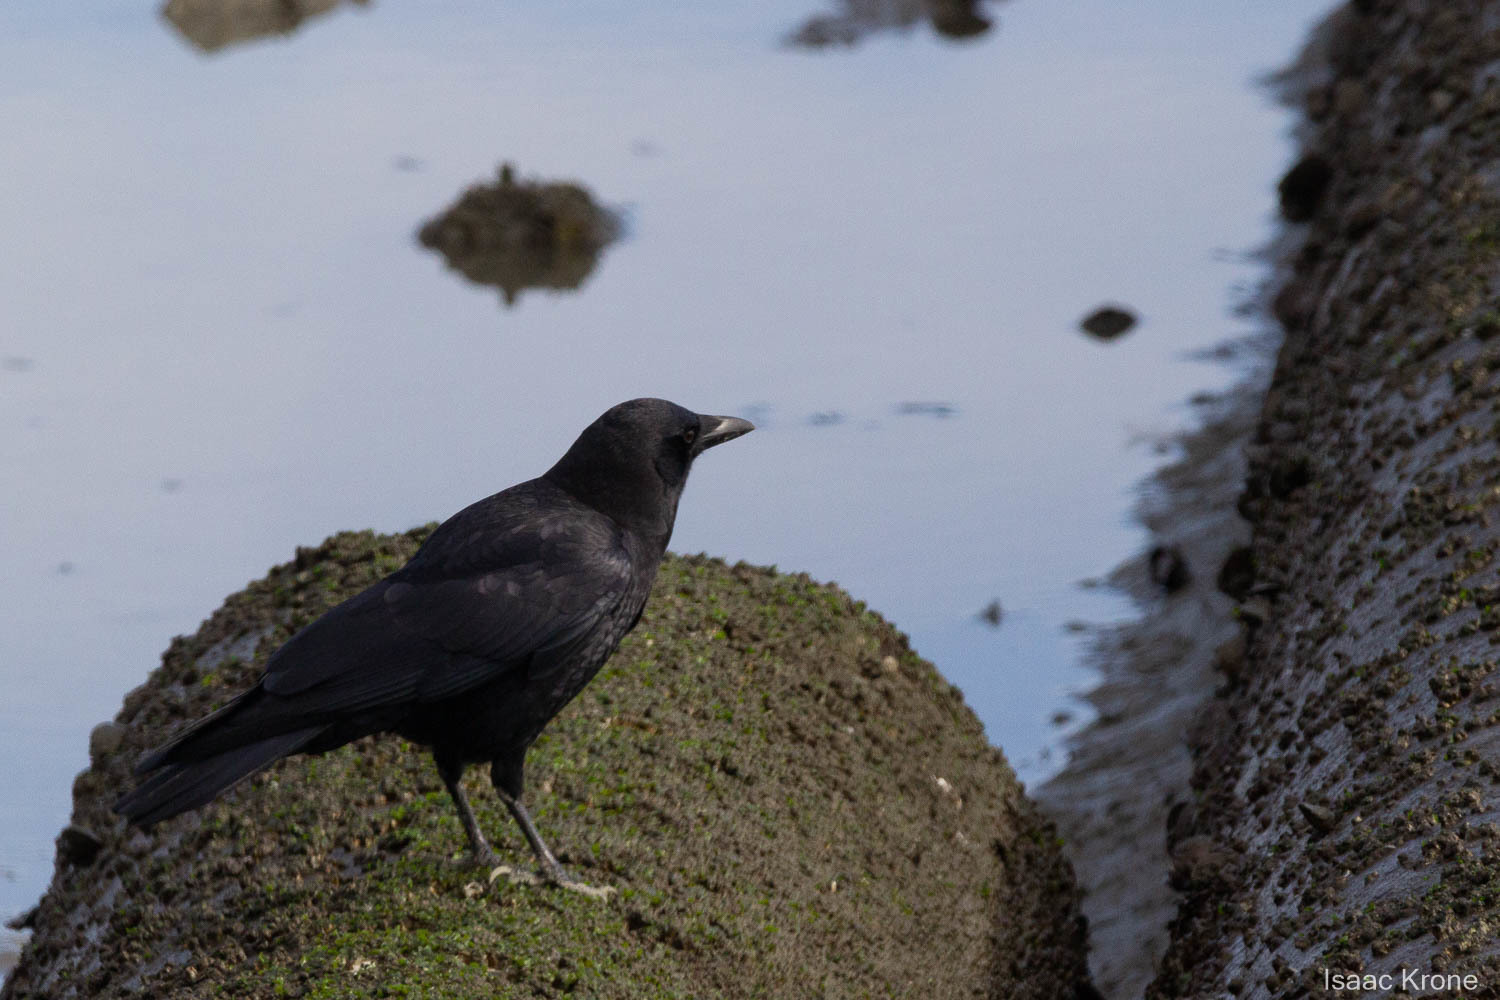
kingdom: Animalia
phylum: Chordata
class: Aves
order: Passeriformes
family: Corvidae
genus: Corvus
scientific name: Corvus brachyrhynchos
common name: American crow
